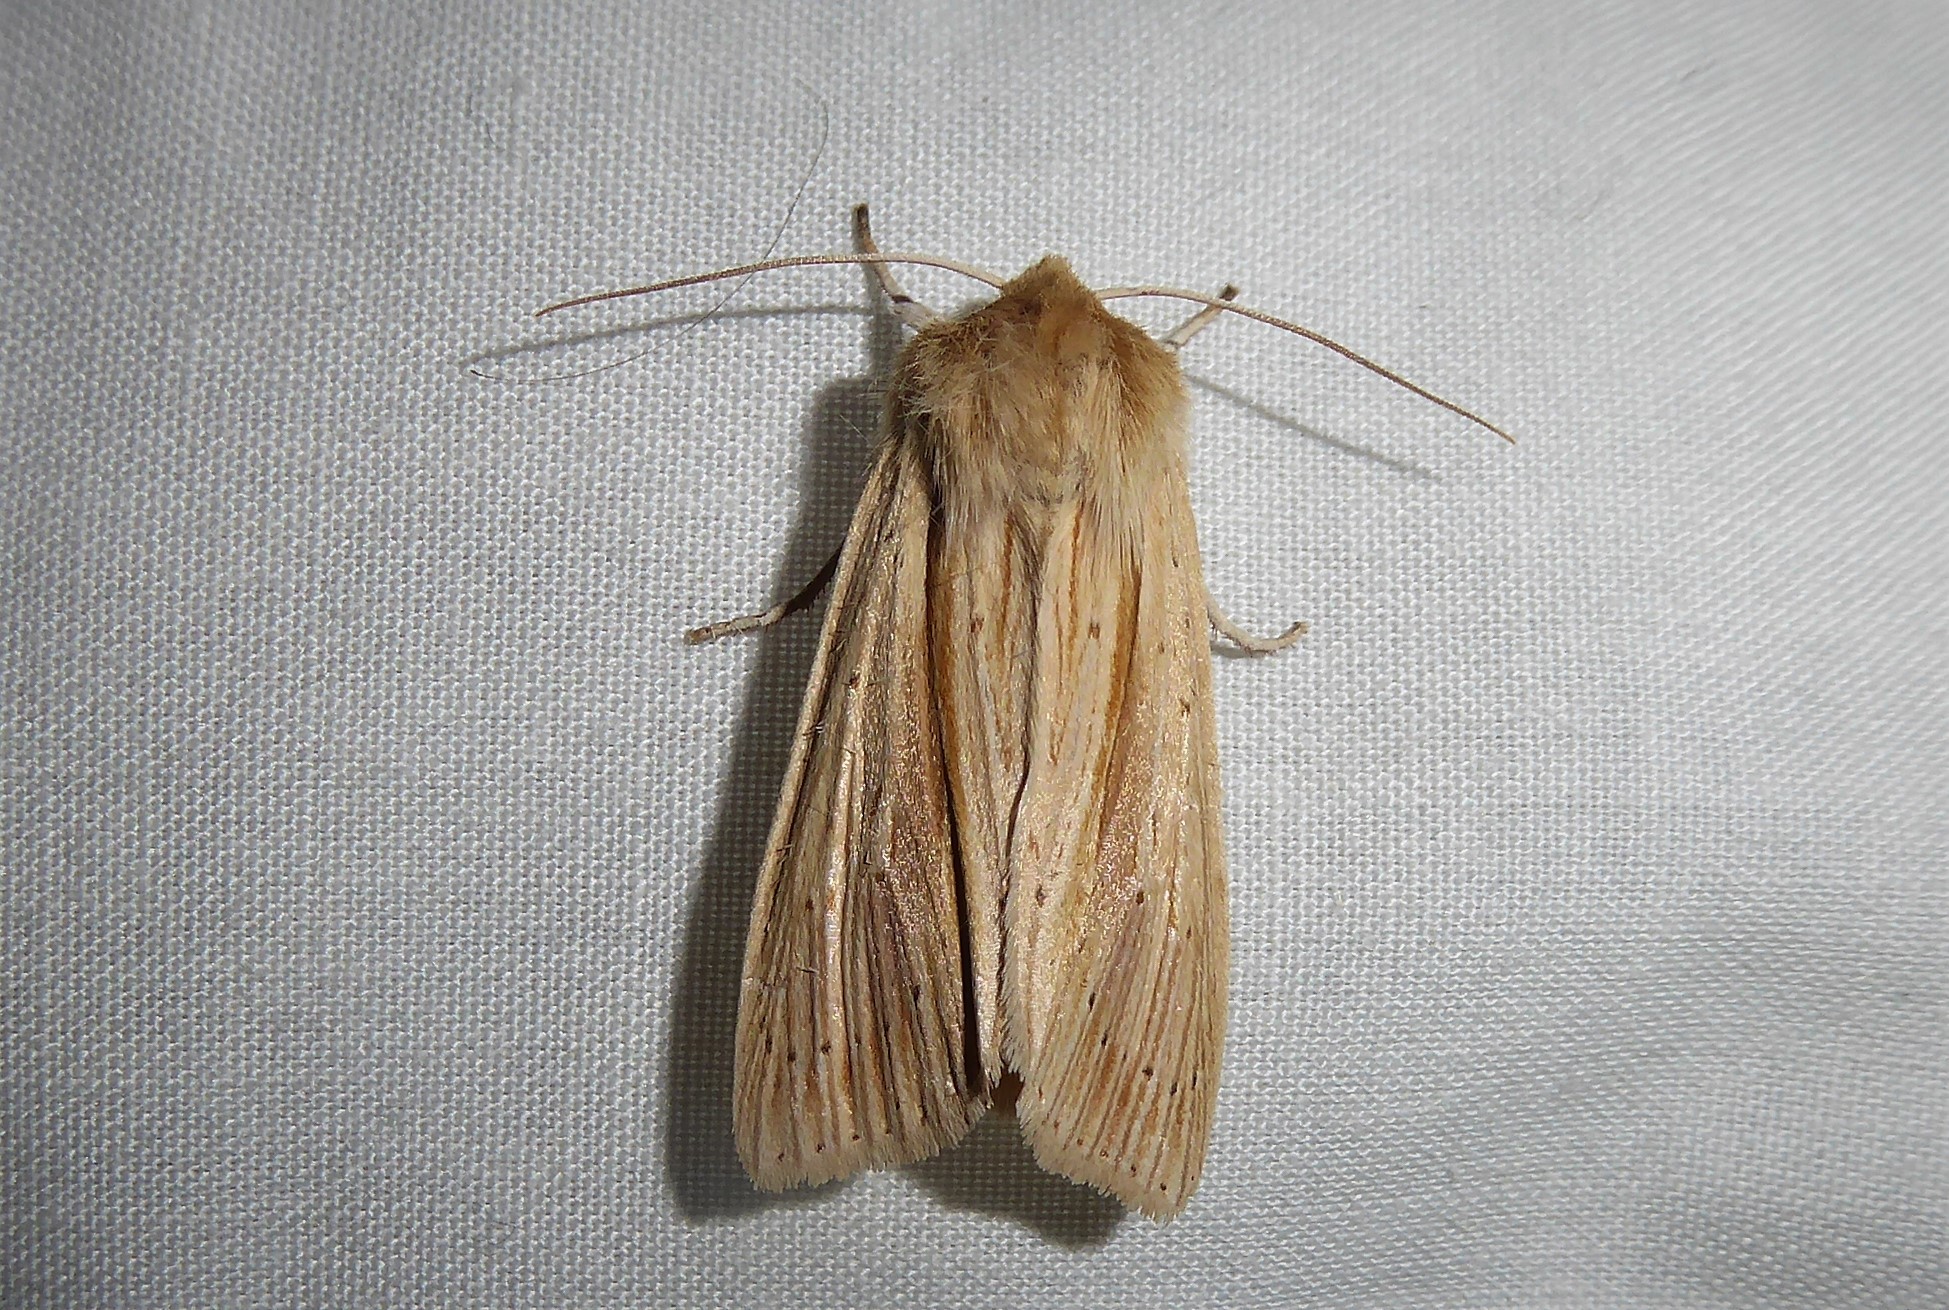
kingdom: Animalia
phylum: Arthropoda
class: Insecta
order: Lepidoptera
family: Noctuidae
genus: Ichneutica
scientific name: Ichneutica semivittata
